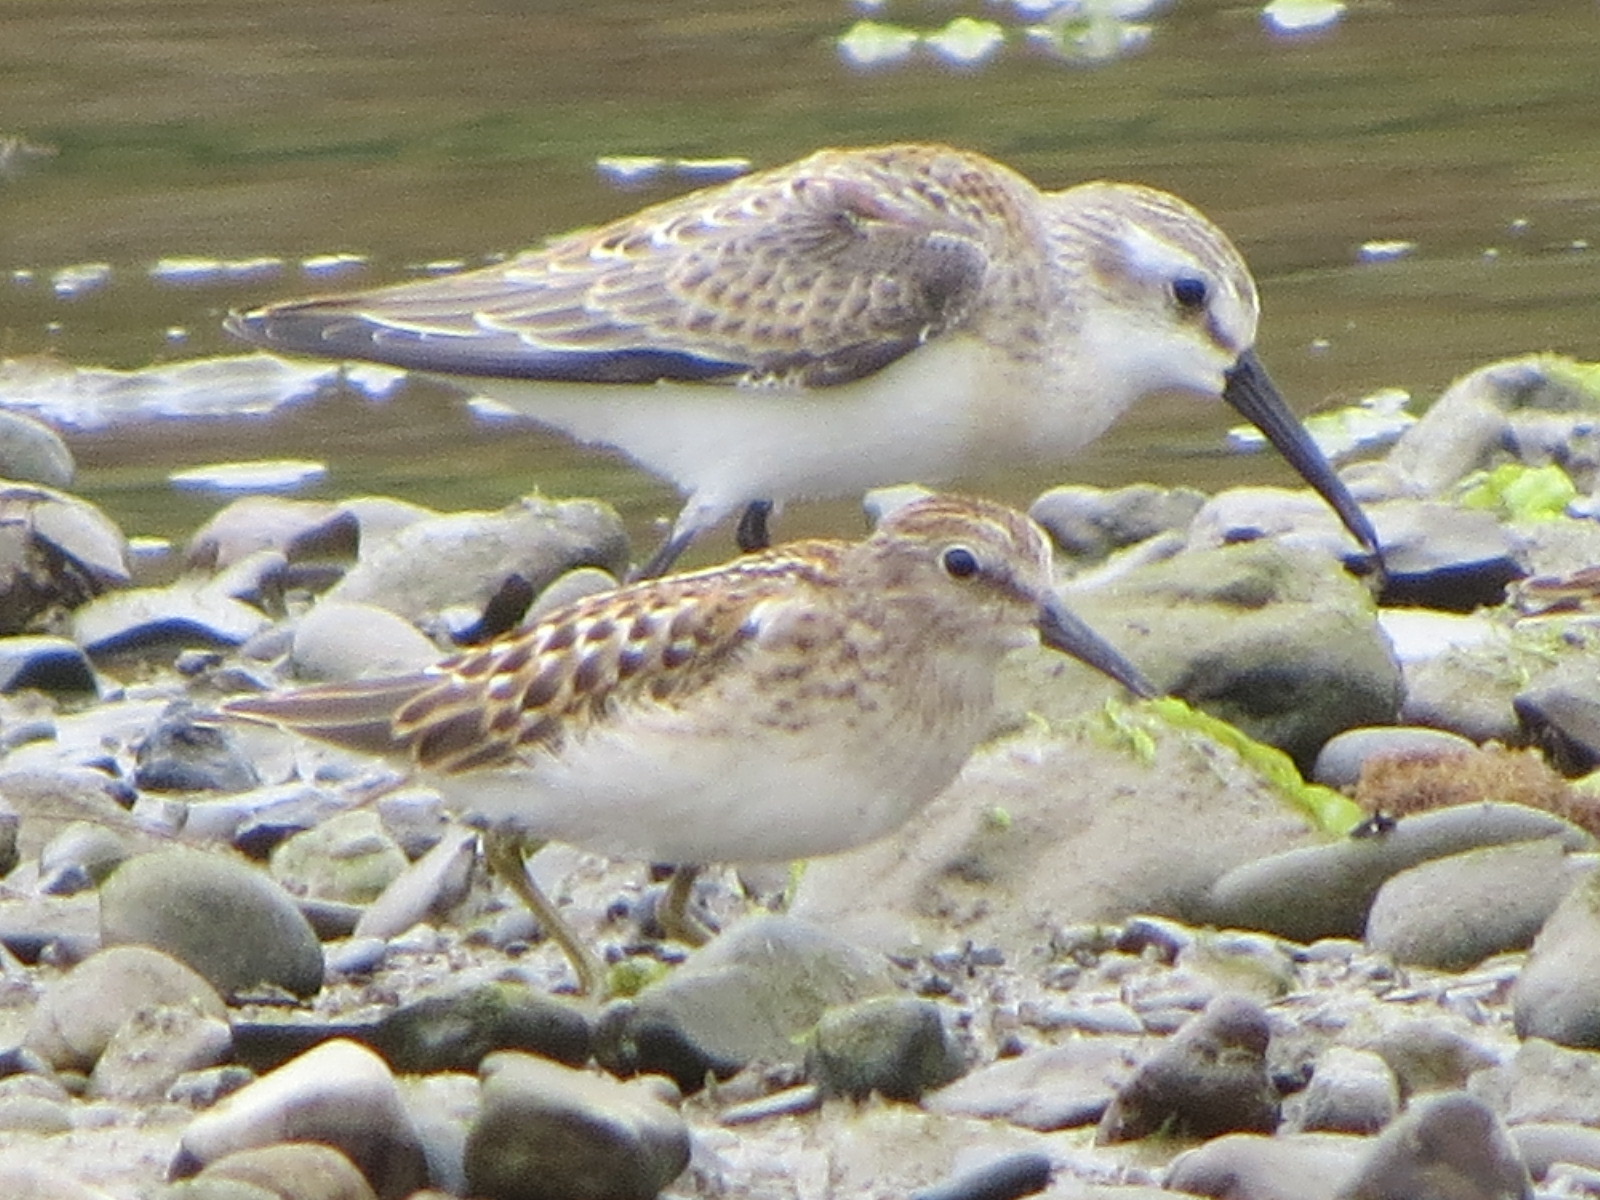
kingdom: Animalia
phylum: Chordata
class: Aves
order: Charadriiformes
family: Scolopacidae
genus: Calidris
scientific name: Calidris minutilla
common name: Least sandpiper
